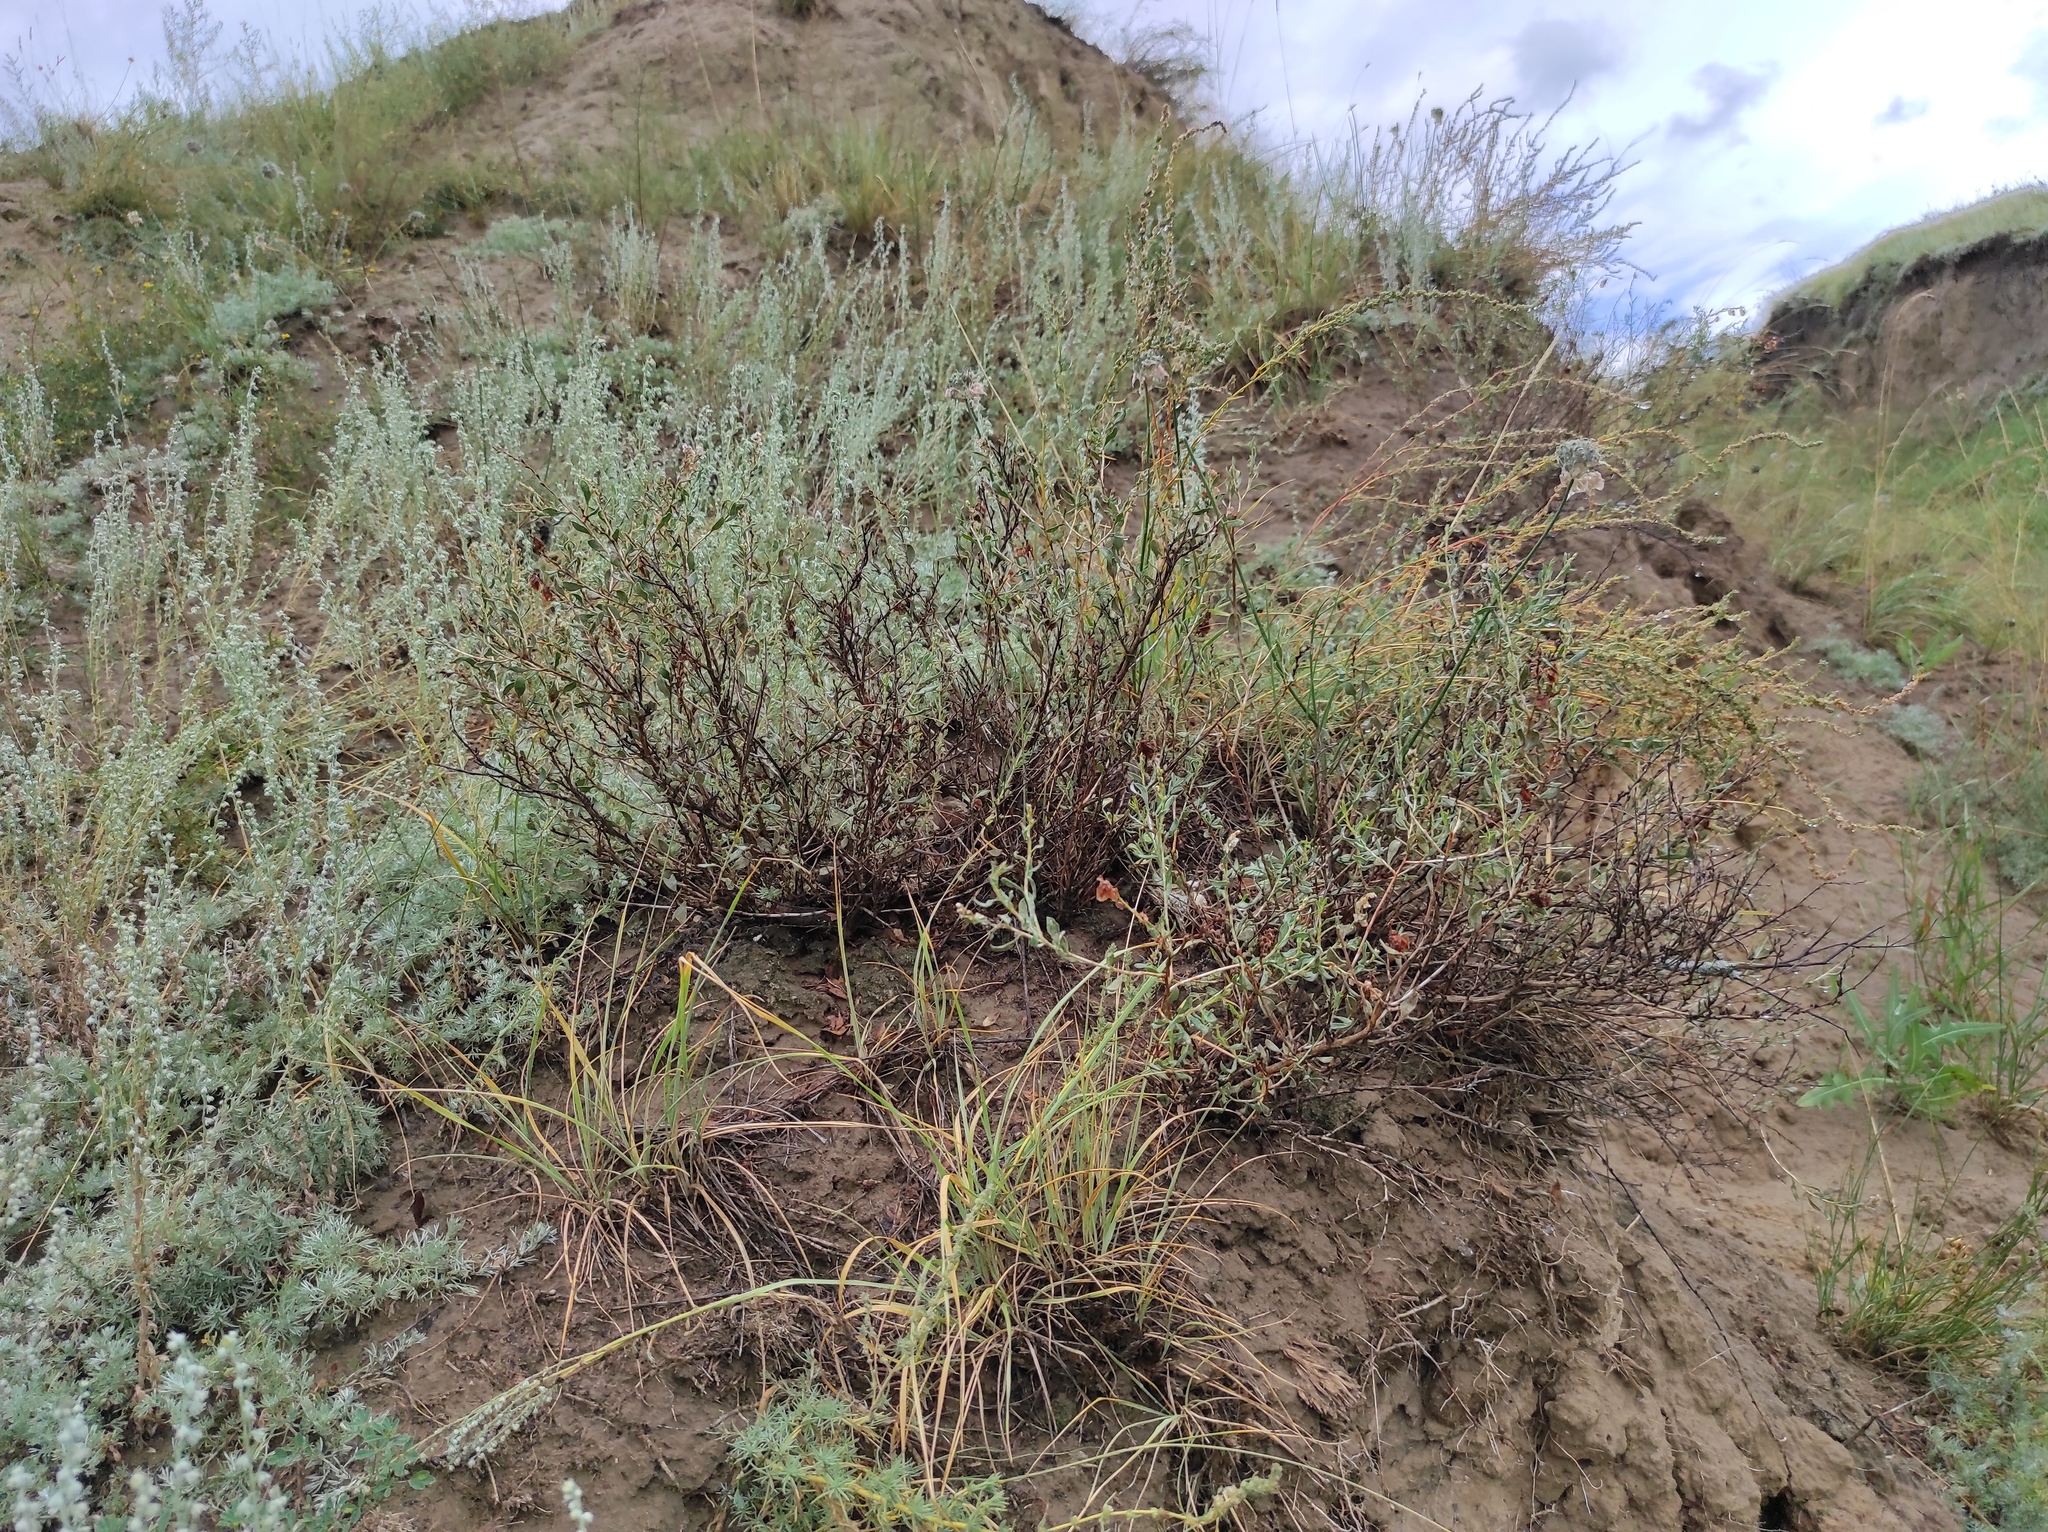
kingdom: Plantae
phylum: Tracheophyta
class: Magnoliopsida
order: Caryophyllales
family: Polygonaceae
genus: Atraphaxis
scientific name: Atraphaxis frutescens
